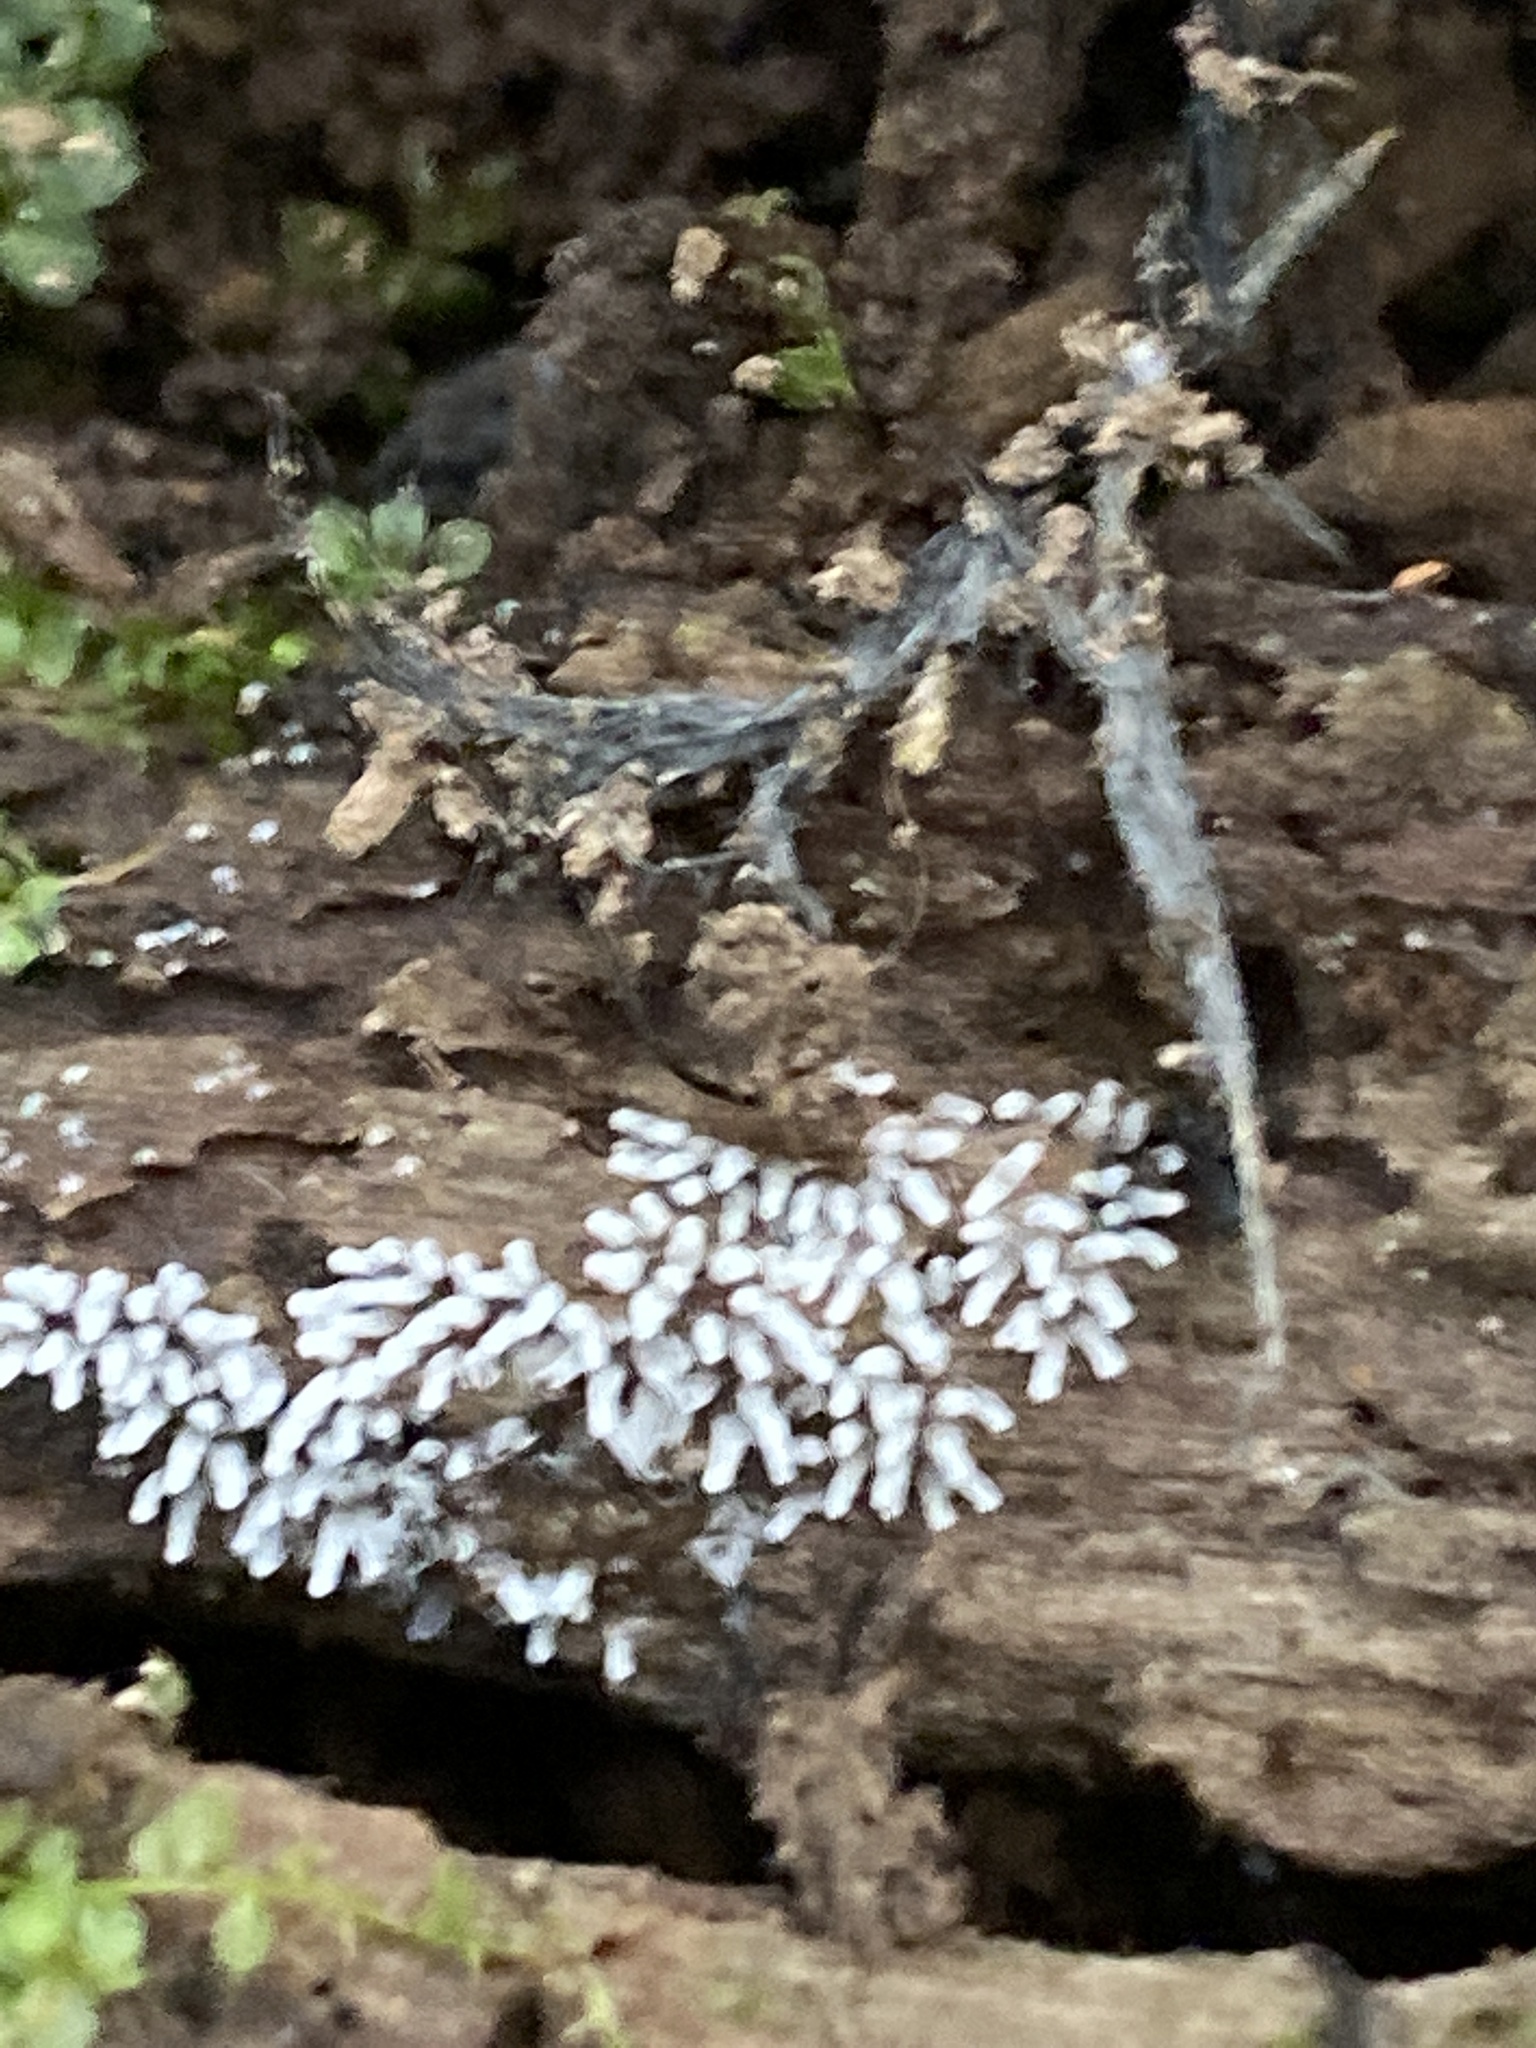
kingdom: Protozoa
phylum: Mycetozoa
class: Protosteliomycetes
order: Ceratiomyxales
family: Ceratiomyxaceae
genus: Ceratiomyxa
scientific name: Ceratiomyxa fruticulosa
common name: Honeycomb coral slime mold
